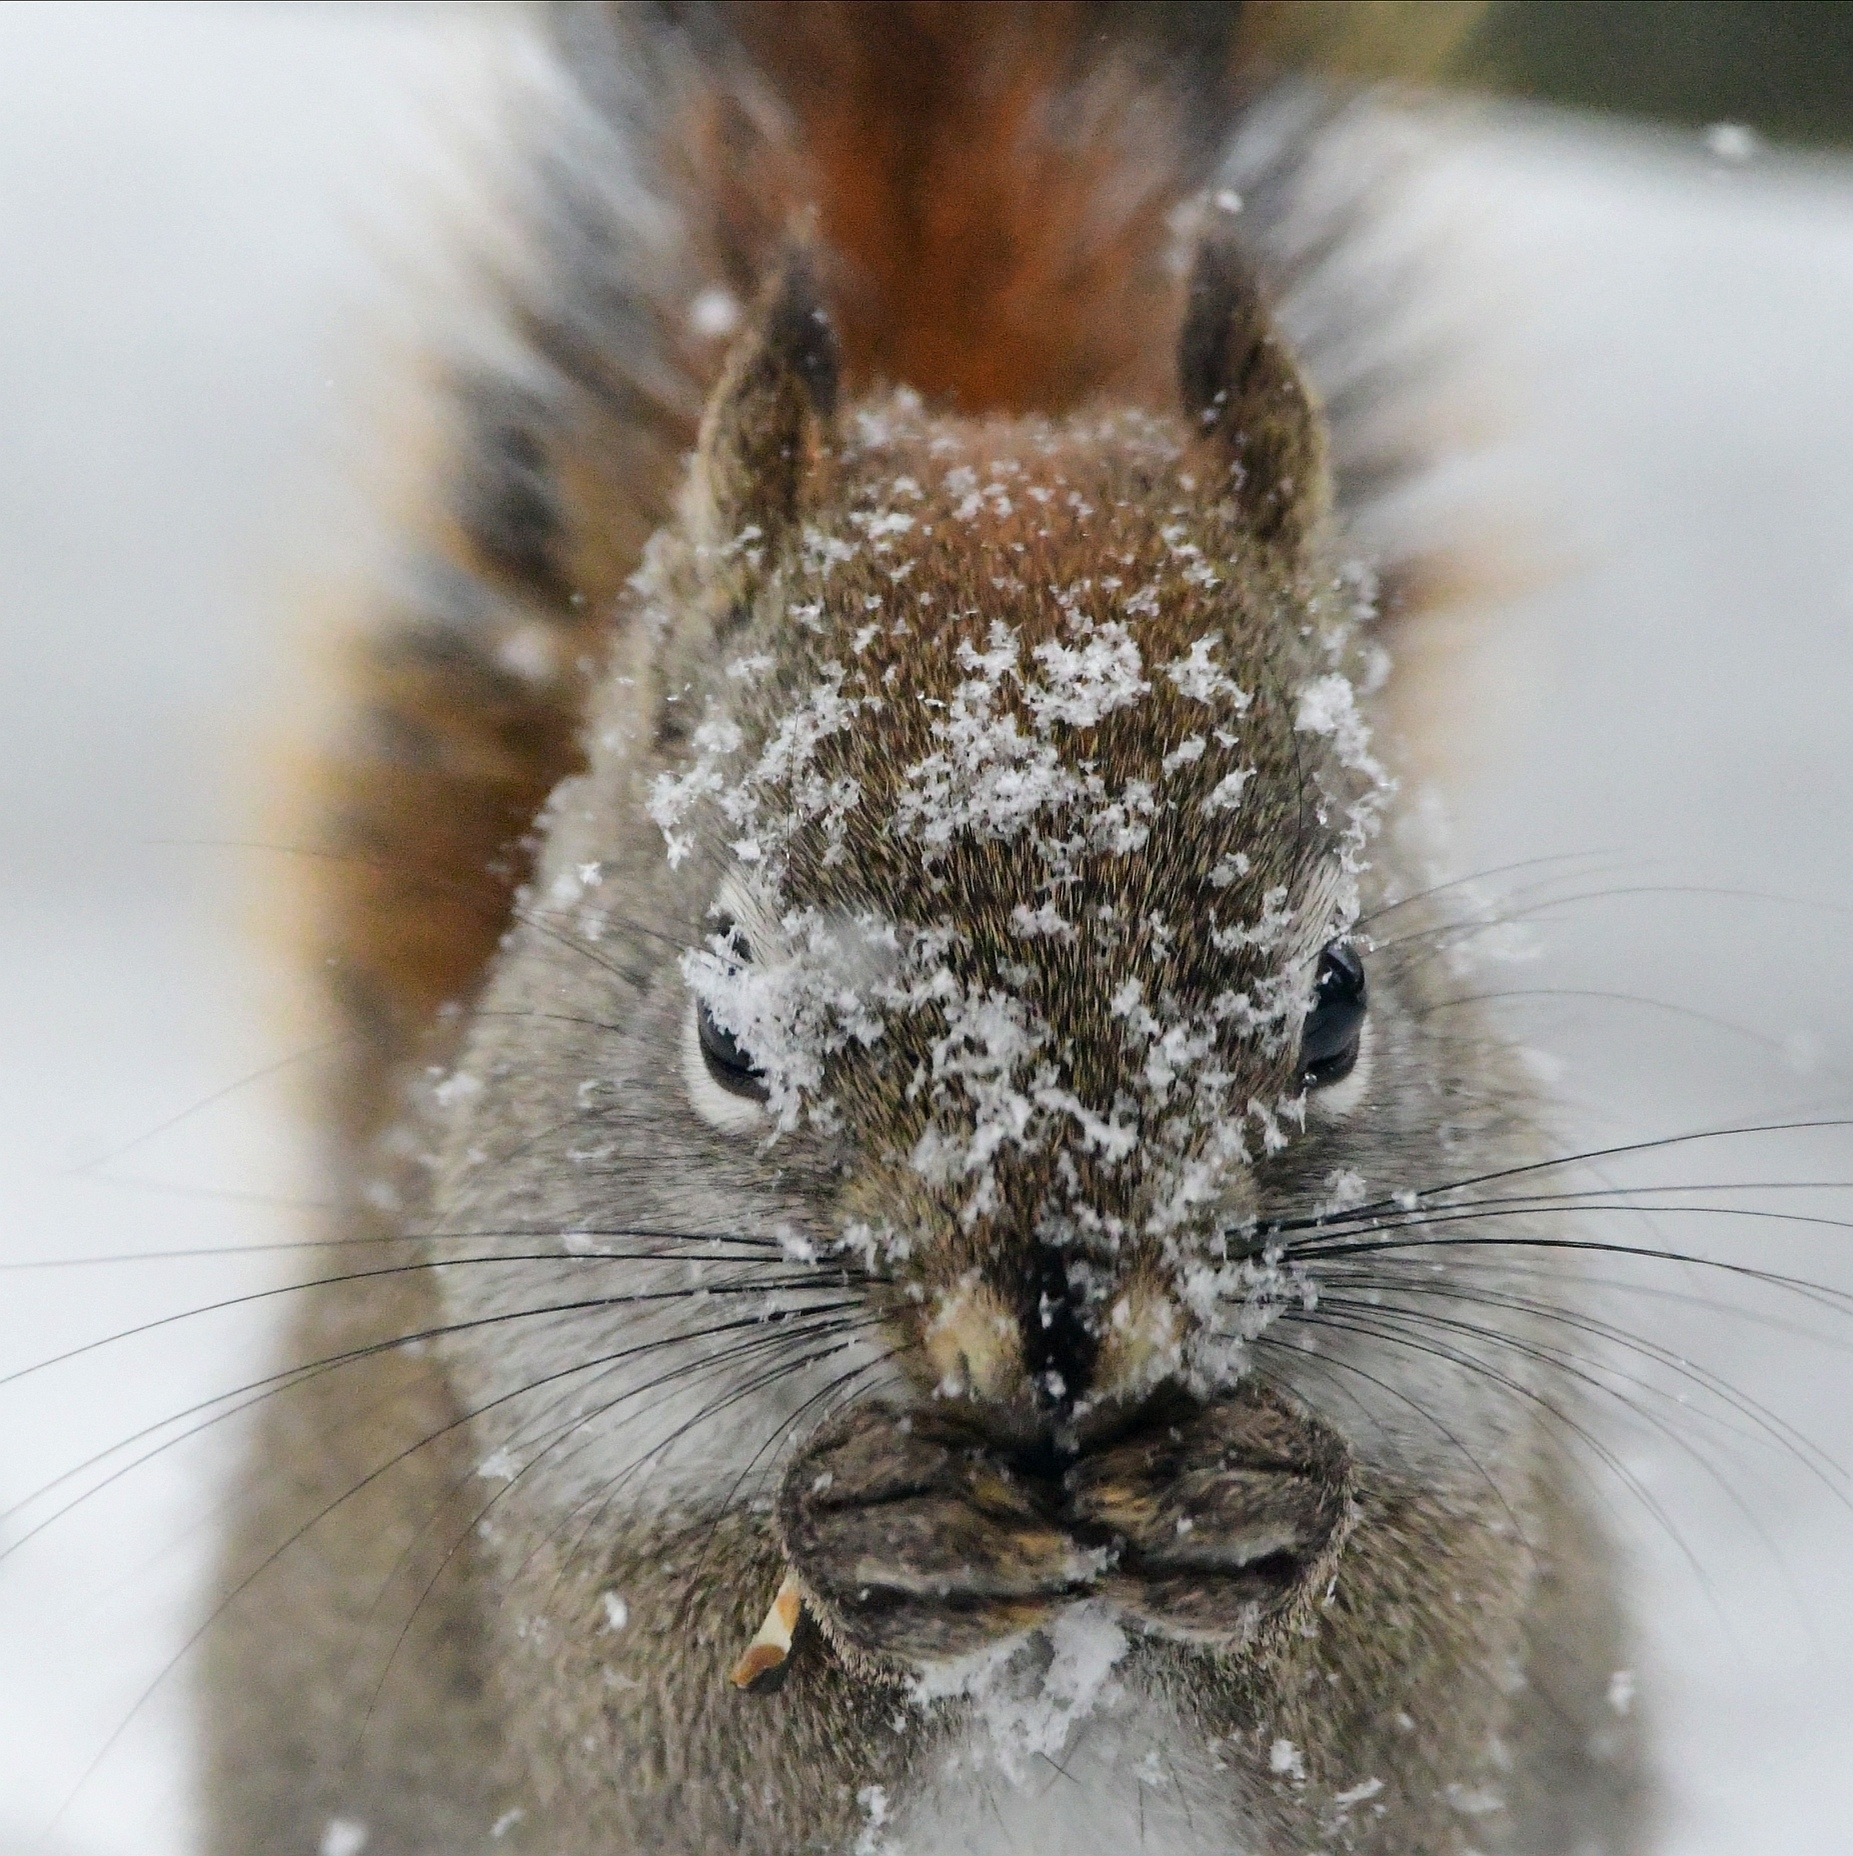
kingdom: Animalia
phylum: Chordata
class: Mammalia
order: Rodentia
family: Sciuridae
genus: Tamiasciurus
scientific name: Tamiasciurus hudsonicus
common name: Red squirrel
